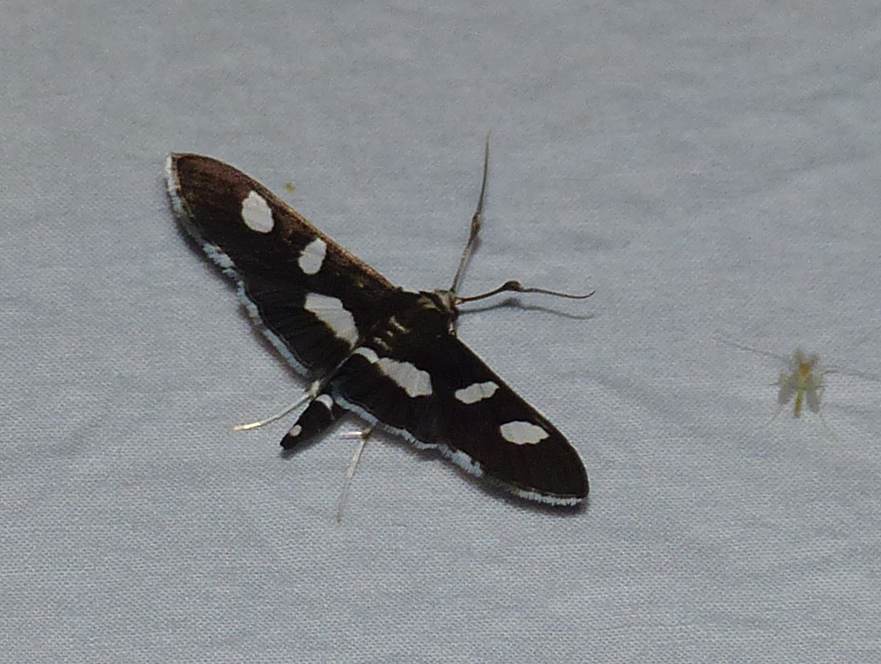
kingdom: Animalia
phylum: Arthropoda
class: Insecta
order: Lepidoptera
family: Crambidae
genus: Desmia
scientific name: Desmia
